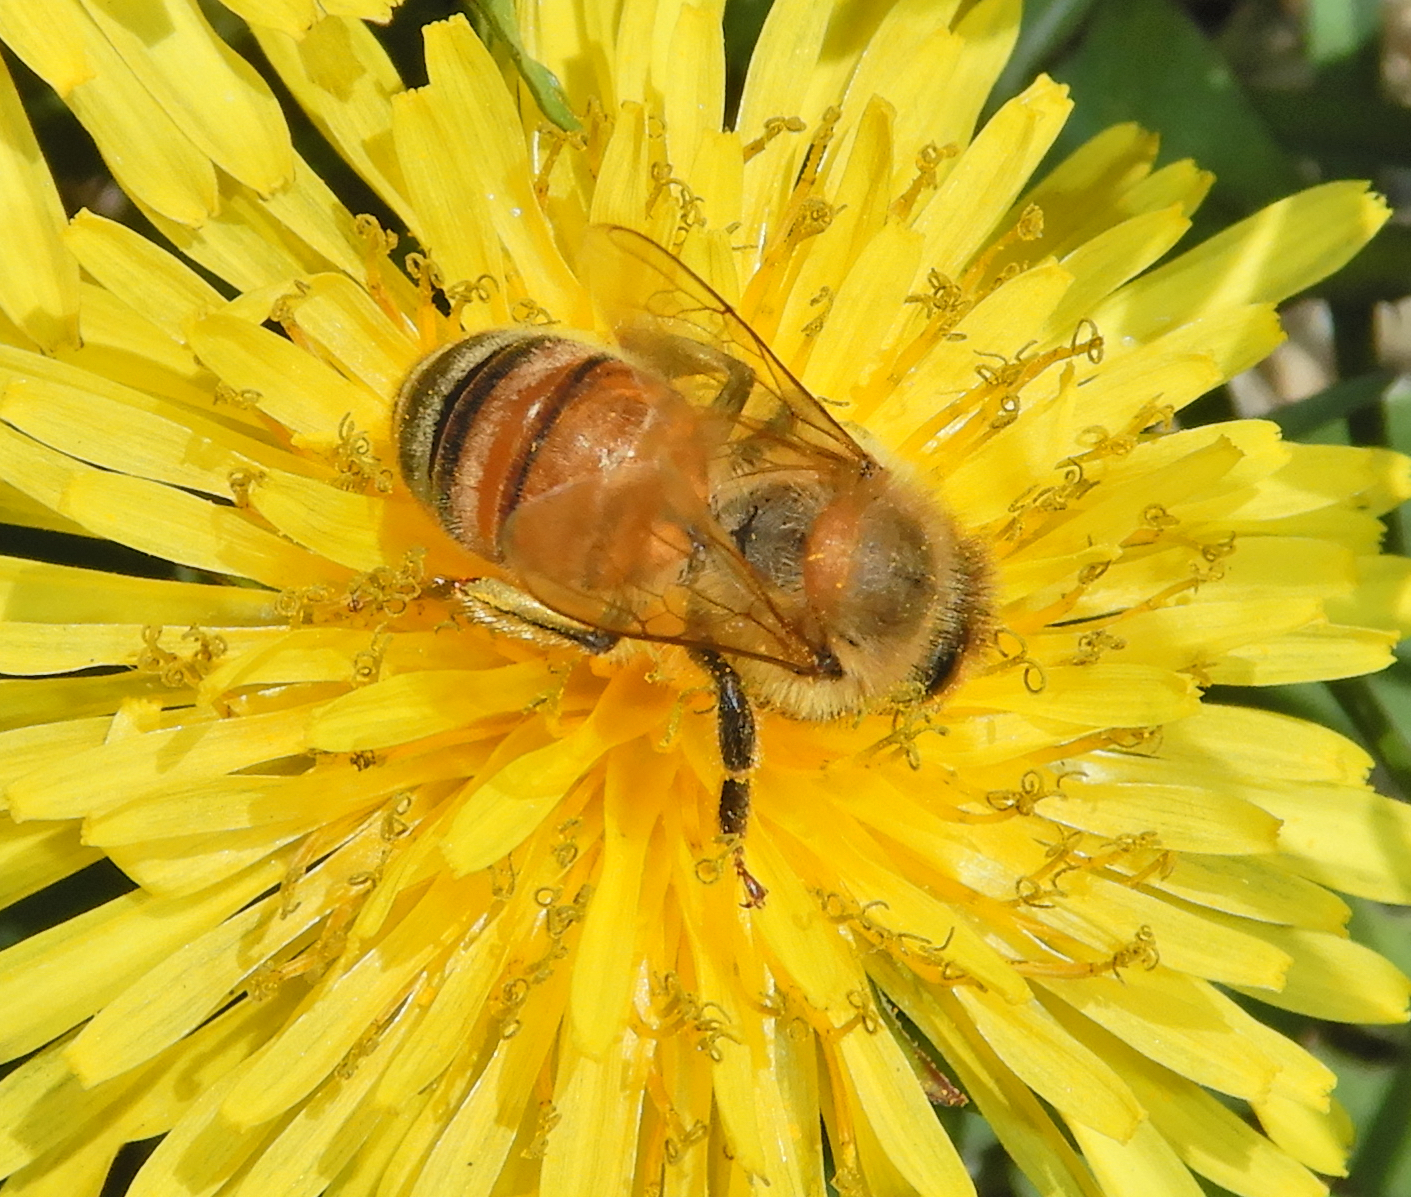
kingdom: Animalia
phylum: Arthropoda
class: Insecta
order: Hymenoptera
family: Apidae
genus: Apis
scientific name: Apis mellifera
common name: Honey bee
